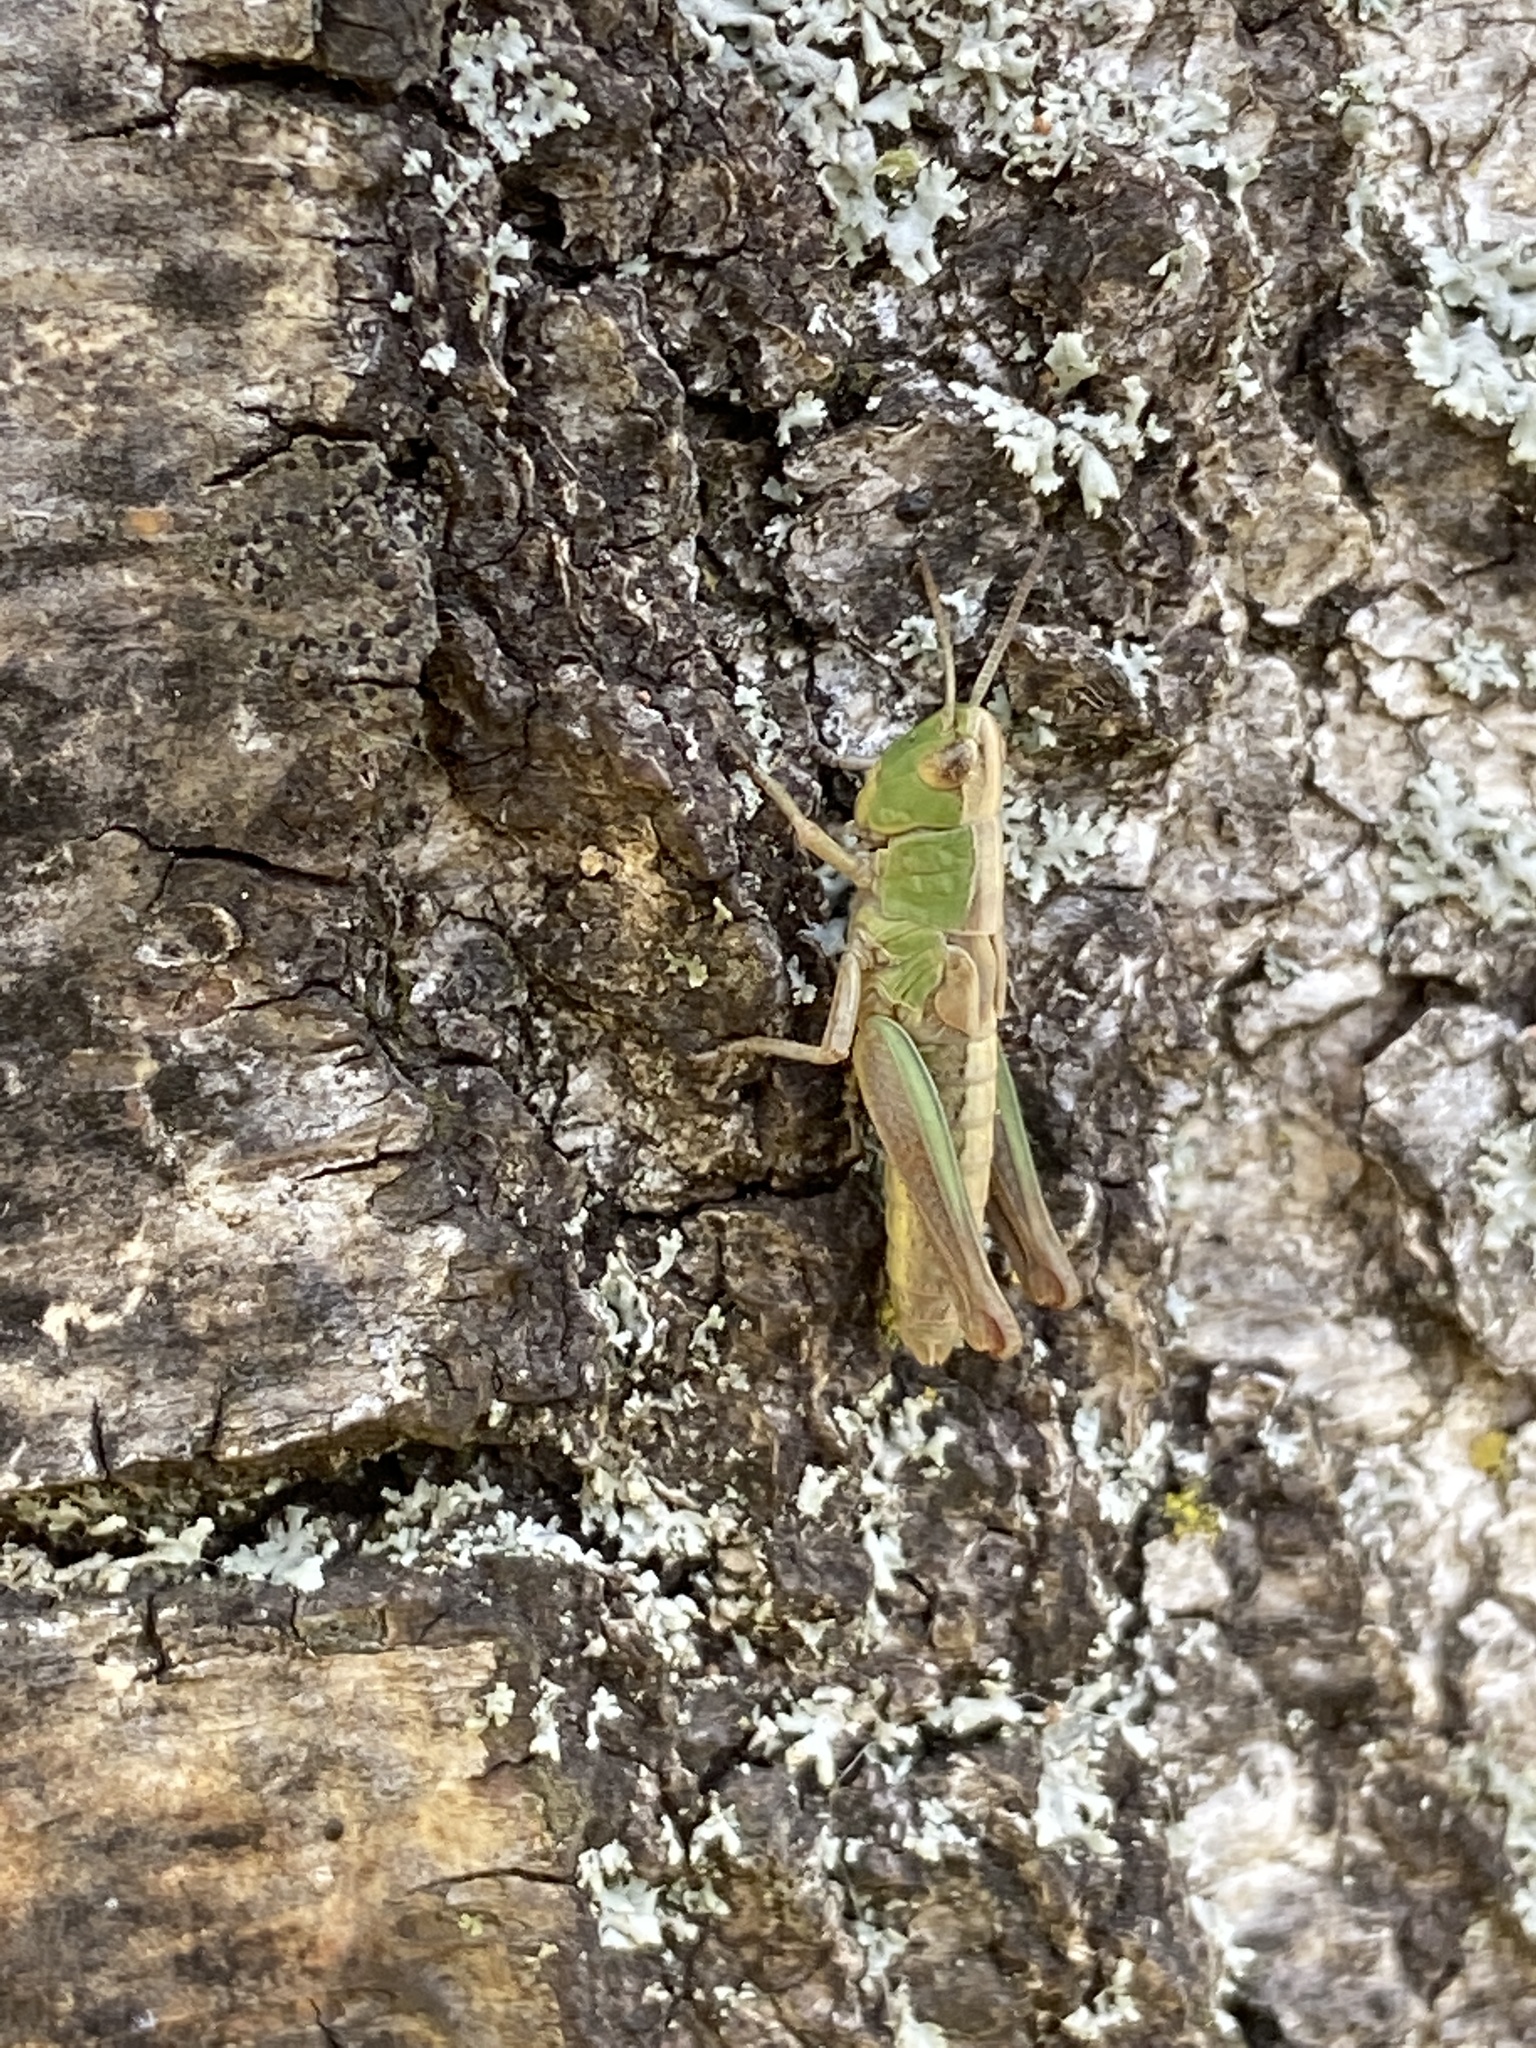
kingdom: Animalia
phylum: Arthropoda
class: Insecta
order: Orthoptera
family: Acrididae
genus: Pseudochorthippus
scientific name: Pseudochorthippus parallelus
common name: Meadow grasshopper
